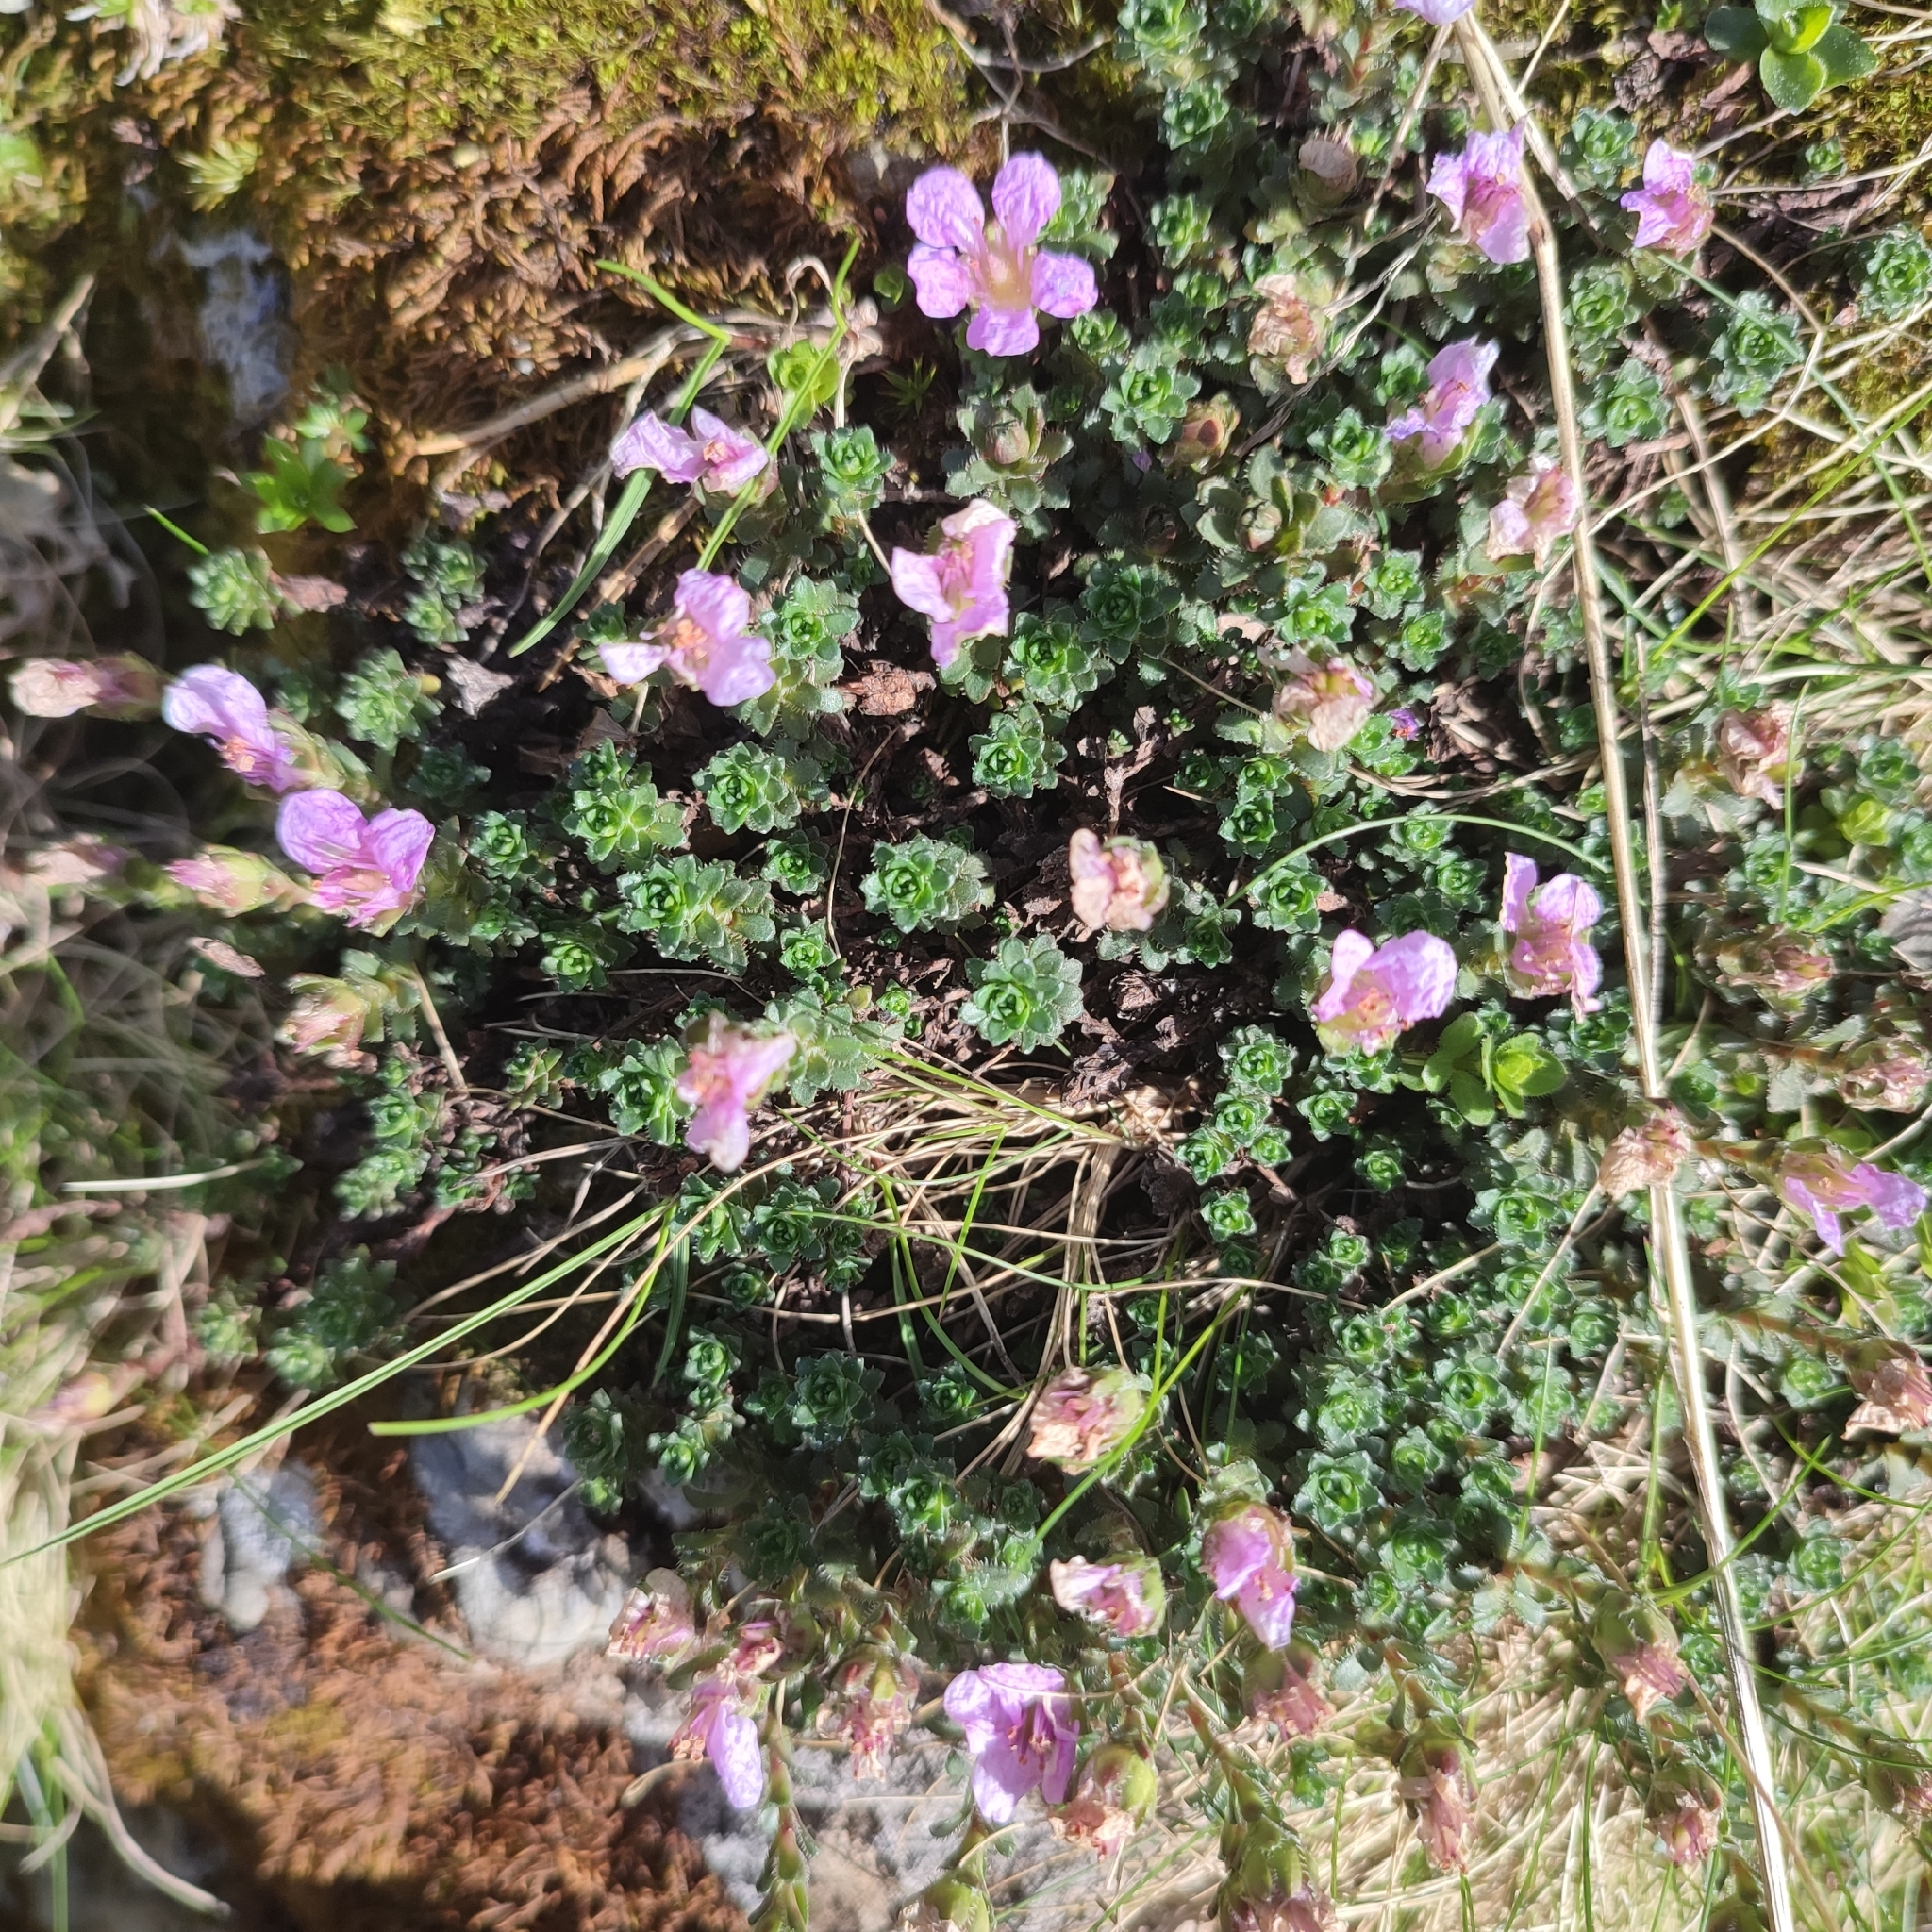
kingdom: Plantae
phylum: Tracheophyta
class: Magnoliopsida
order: Saxifragales
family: Saxifragaceae
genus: Saxifraga
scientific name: Saxifraga oppositifolia
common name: Purple saxifrage
